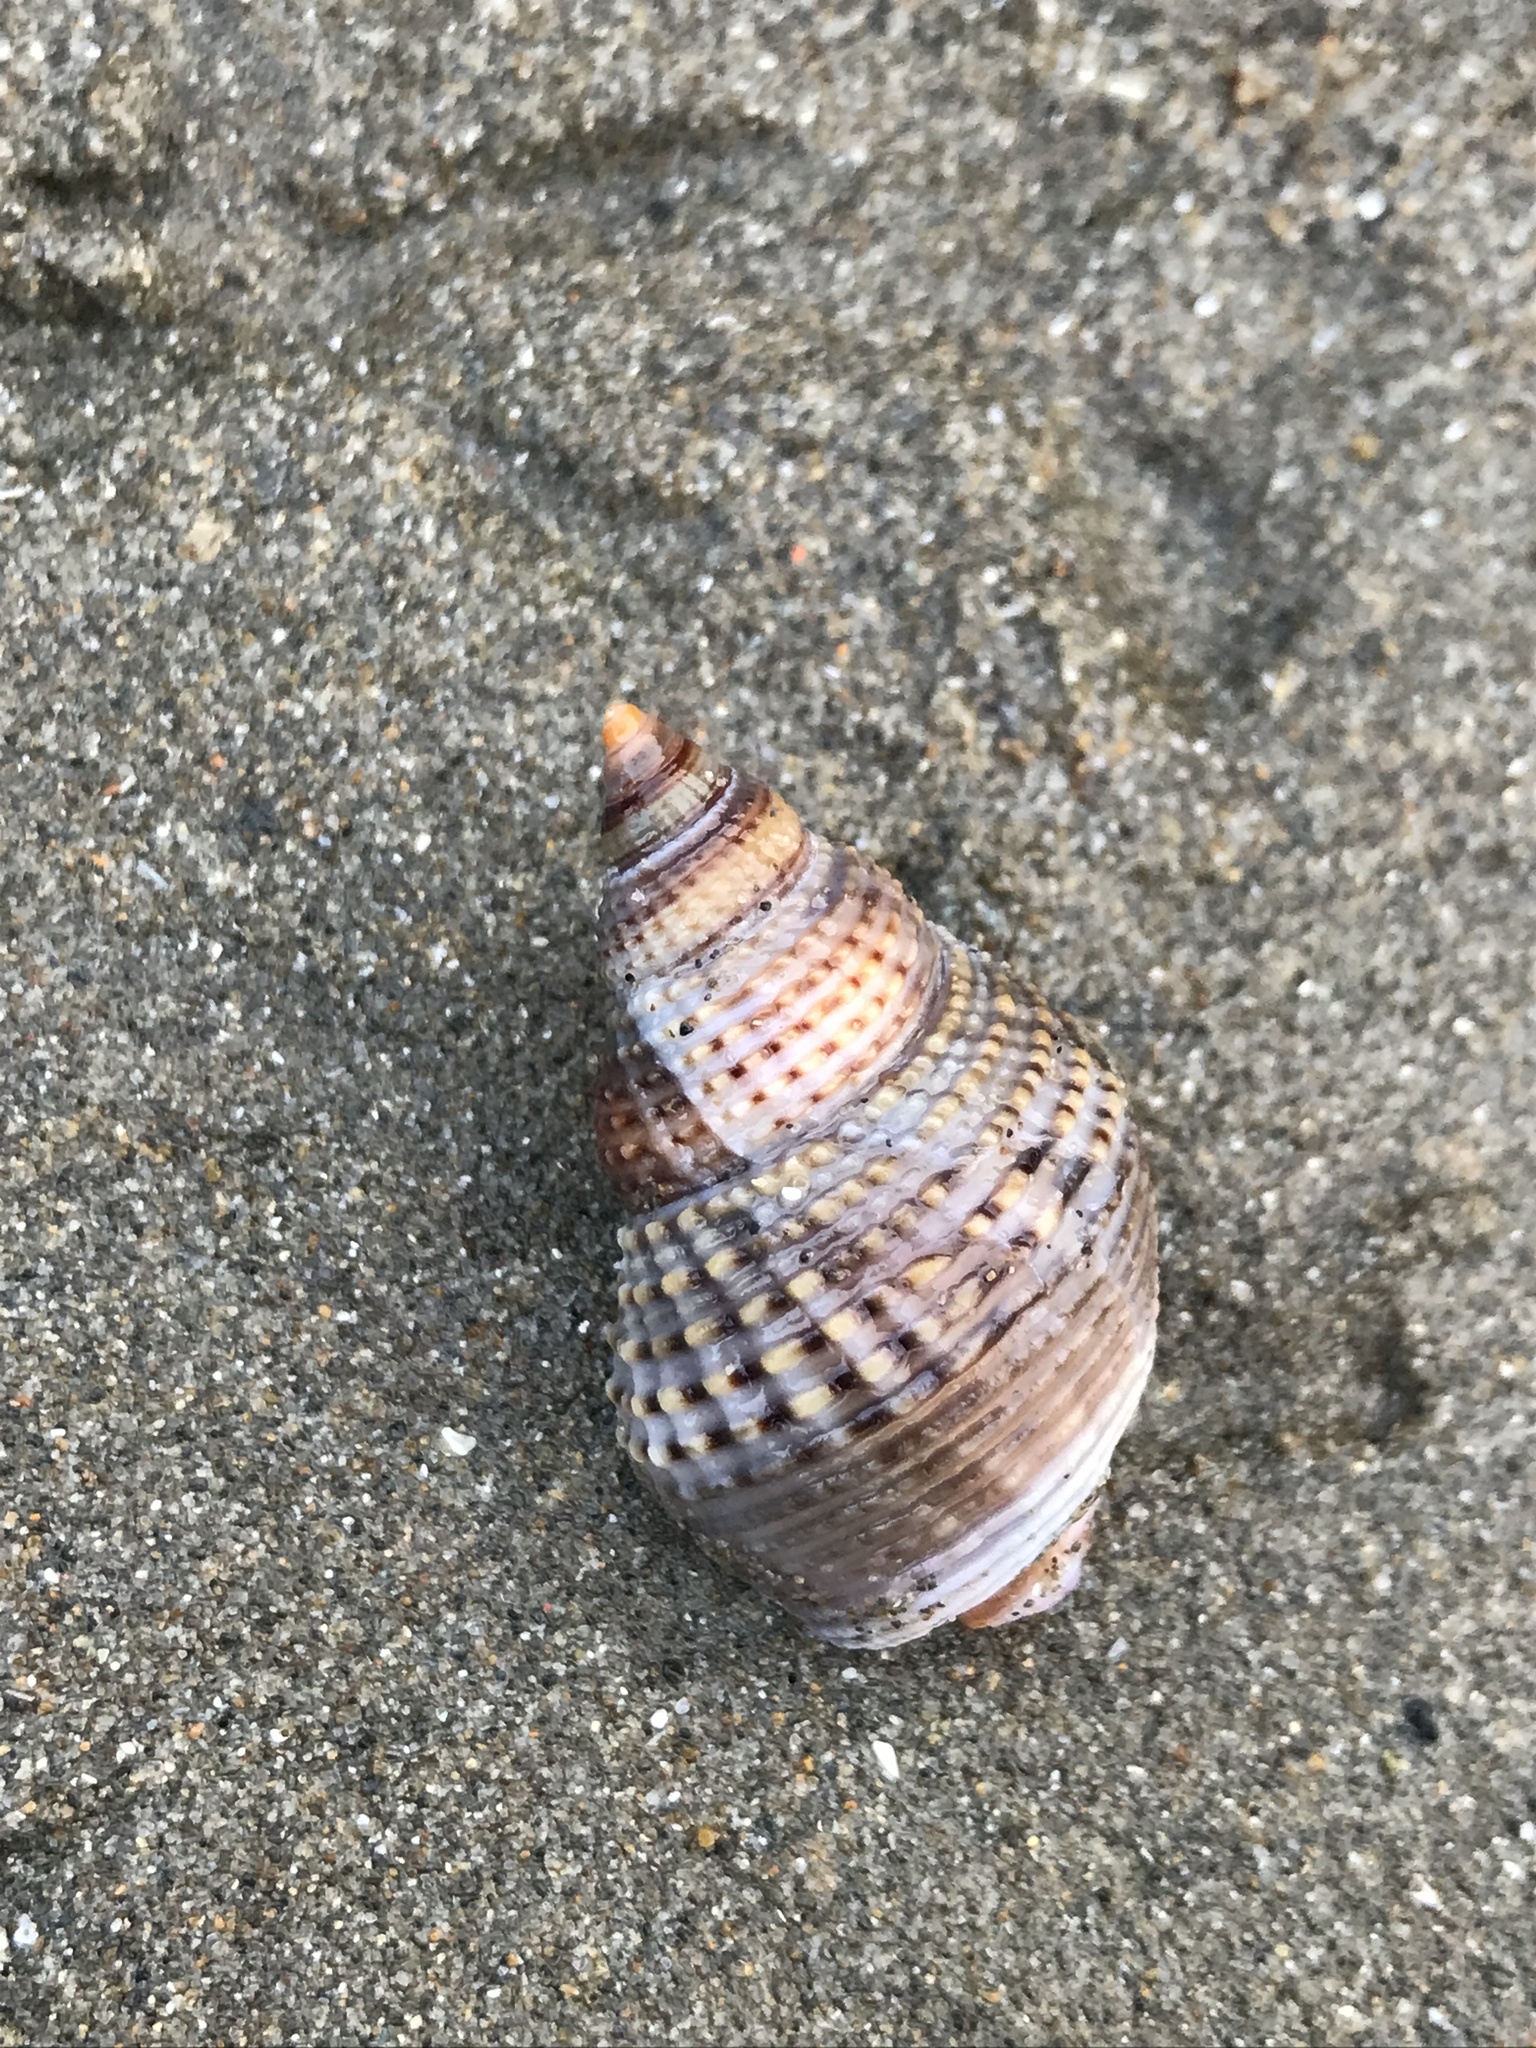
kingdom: Animalia
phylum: Mollusca
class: Gastropoda
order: Neogastropoda
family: Nassariidae
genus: Caesia
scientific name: Caesia fossata
